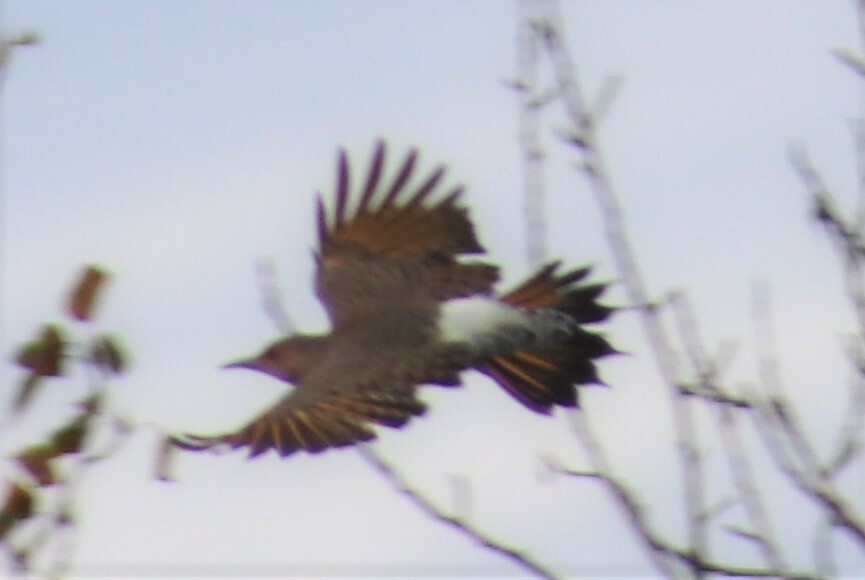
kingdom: Animalia
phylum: Chordata
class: Aves
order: Piciformes
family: Picidae
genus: Colaptes
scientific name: Colaptes auratus
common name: Northern flicker
